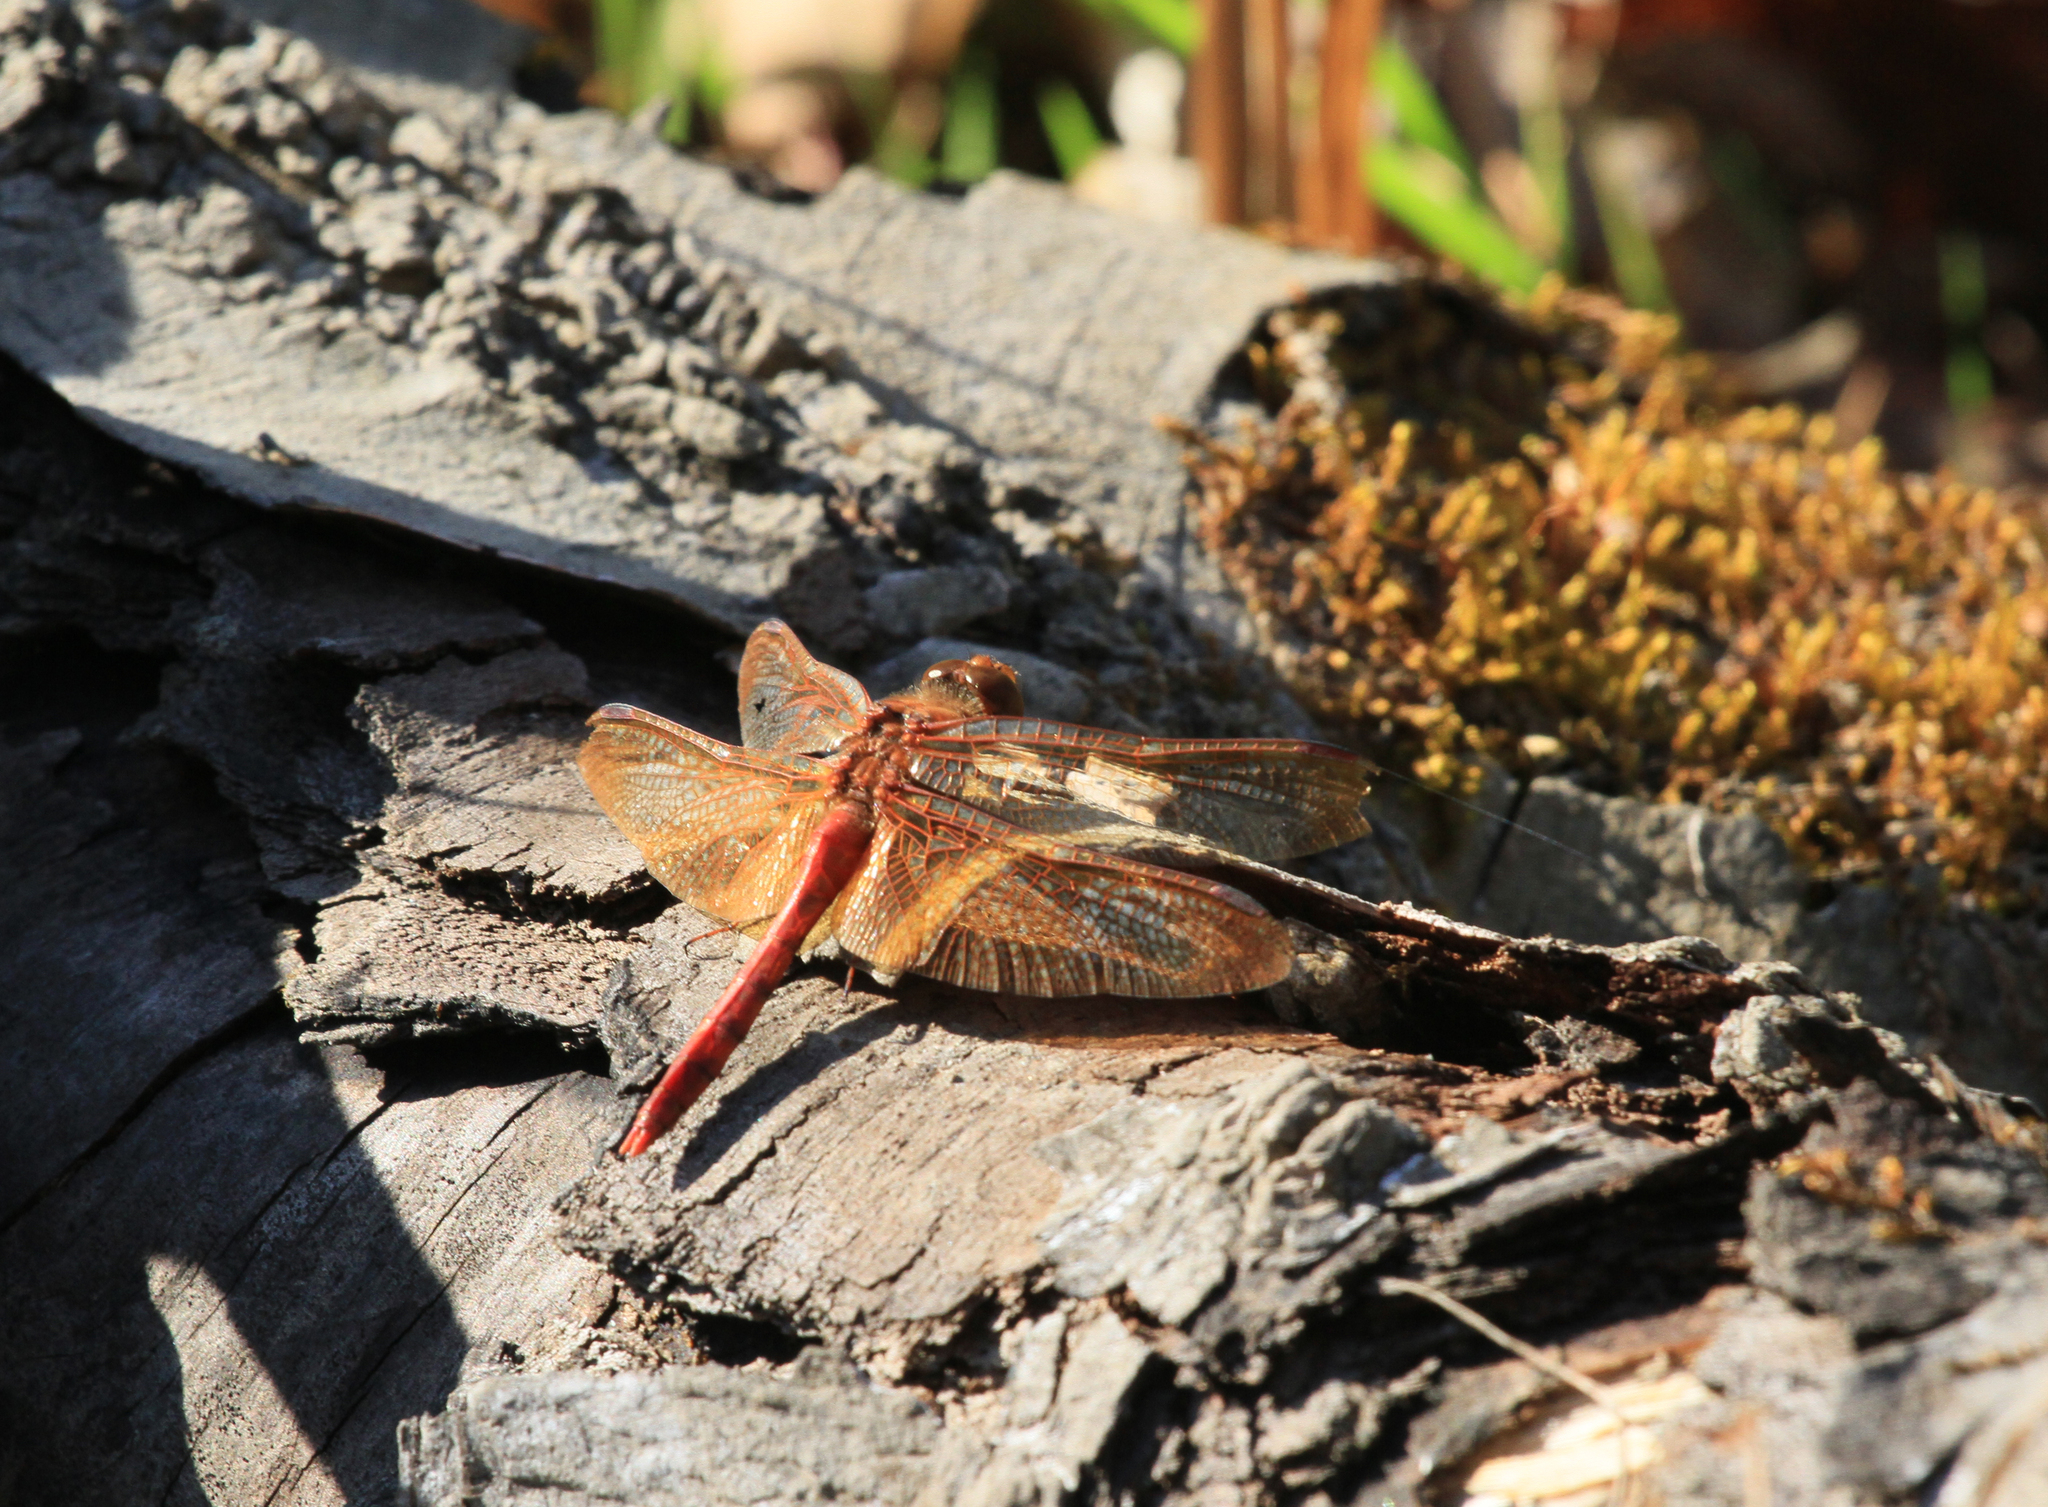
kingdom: Animalia
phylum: Arthropoda
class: Insecta
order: Odonata
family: Libellulidae
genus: Sympetrum
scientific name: Sympetrum croceolum
